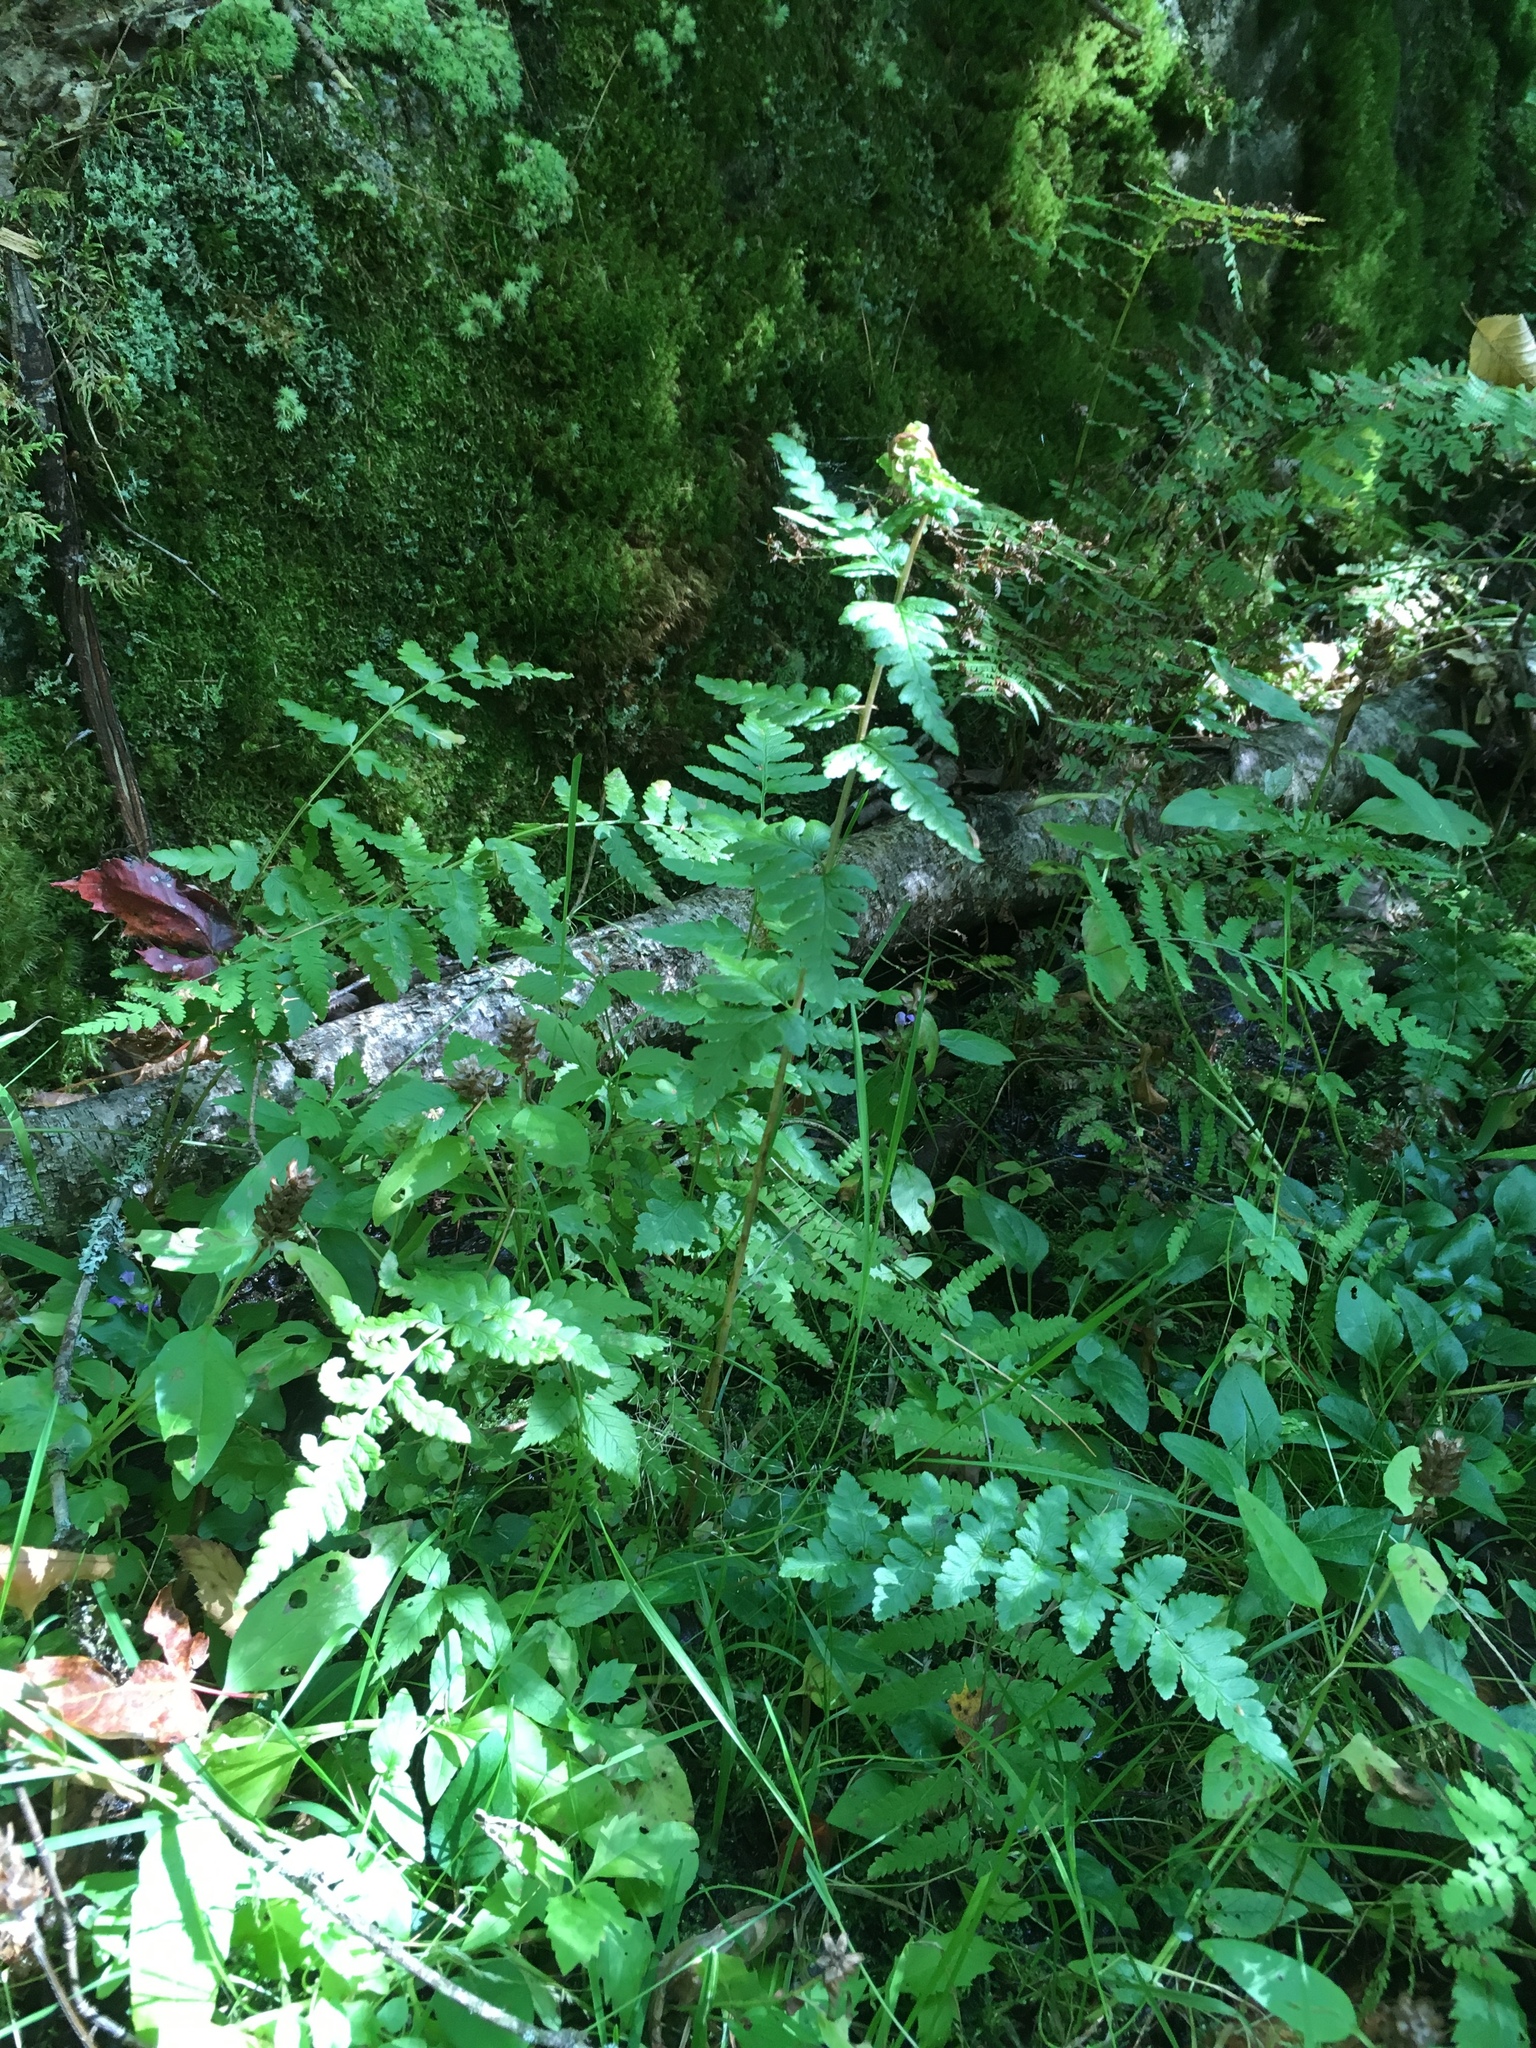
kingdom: Plantae
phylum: Tracheophyta
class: Polypodiopsida
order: Polypodiales
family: Dryopteridaceae
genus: Dryopteris
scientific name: Dryopteris cristata
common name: Crested wood fern
